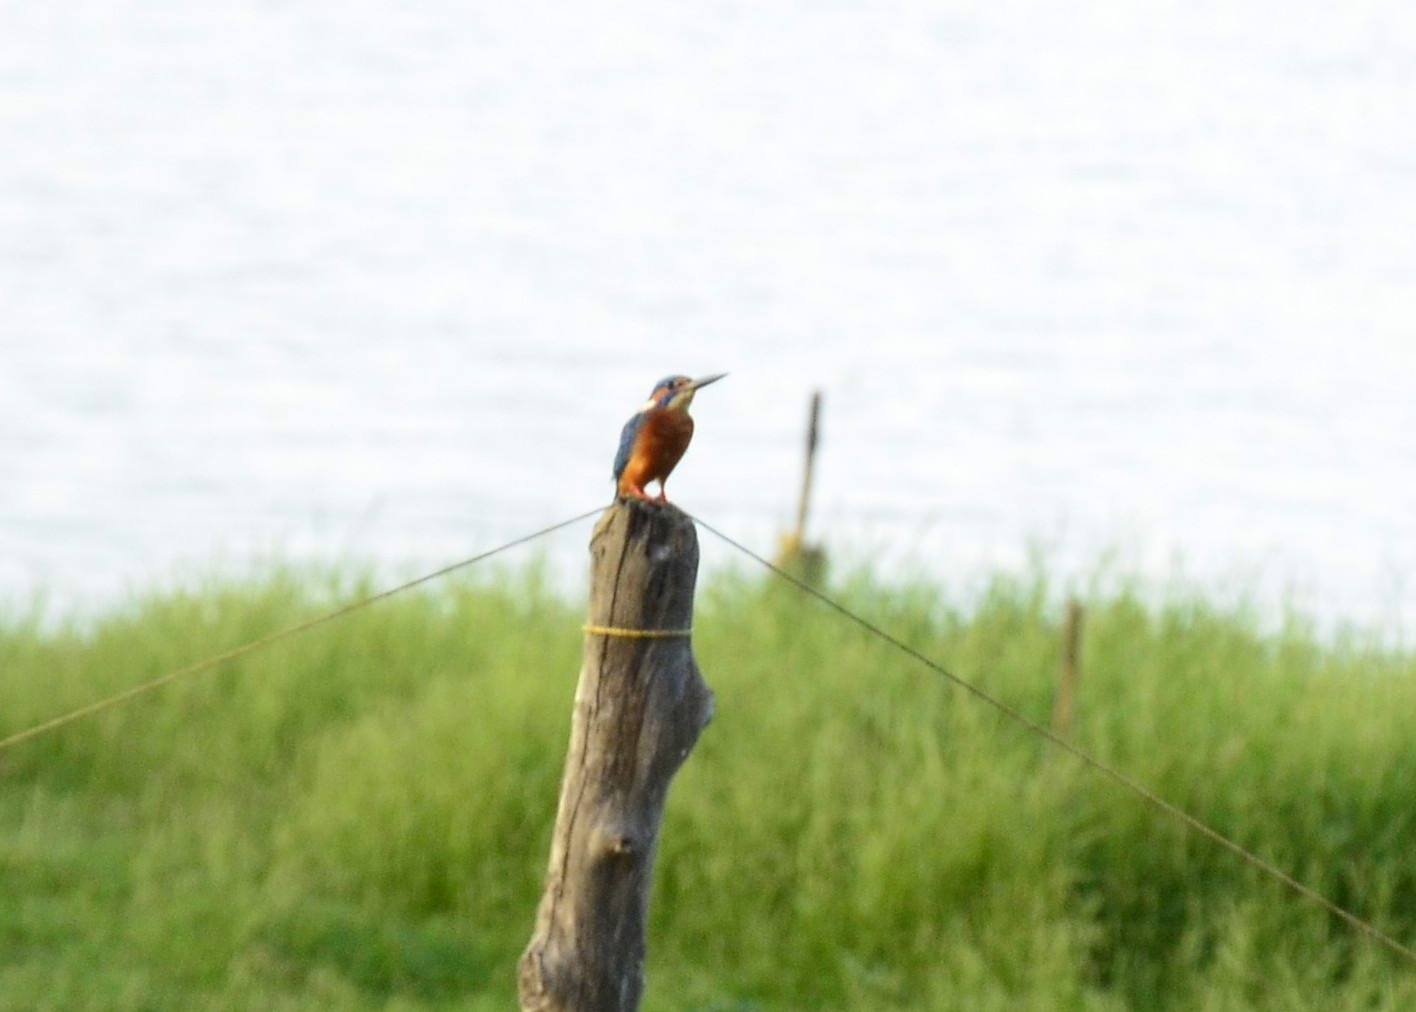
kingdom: Animalia
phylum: Chordata
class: Aves
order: Coraciiformes
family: Alcedinidae
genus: Alcedo
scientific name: Alcedo atthis
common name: Common kingfisher
